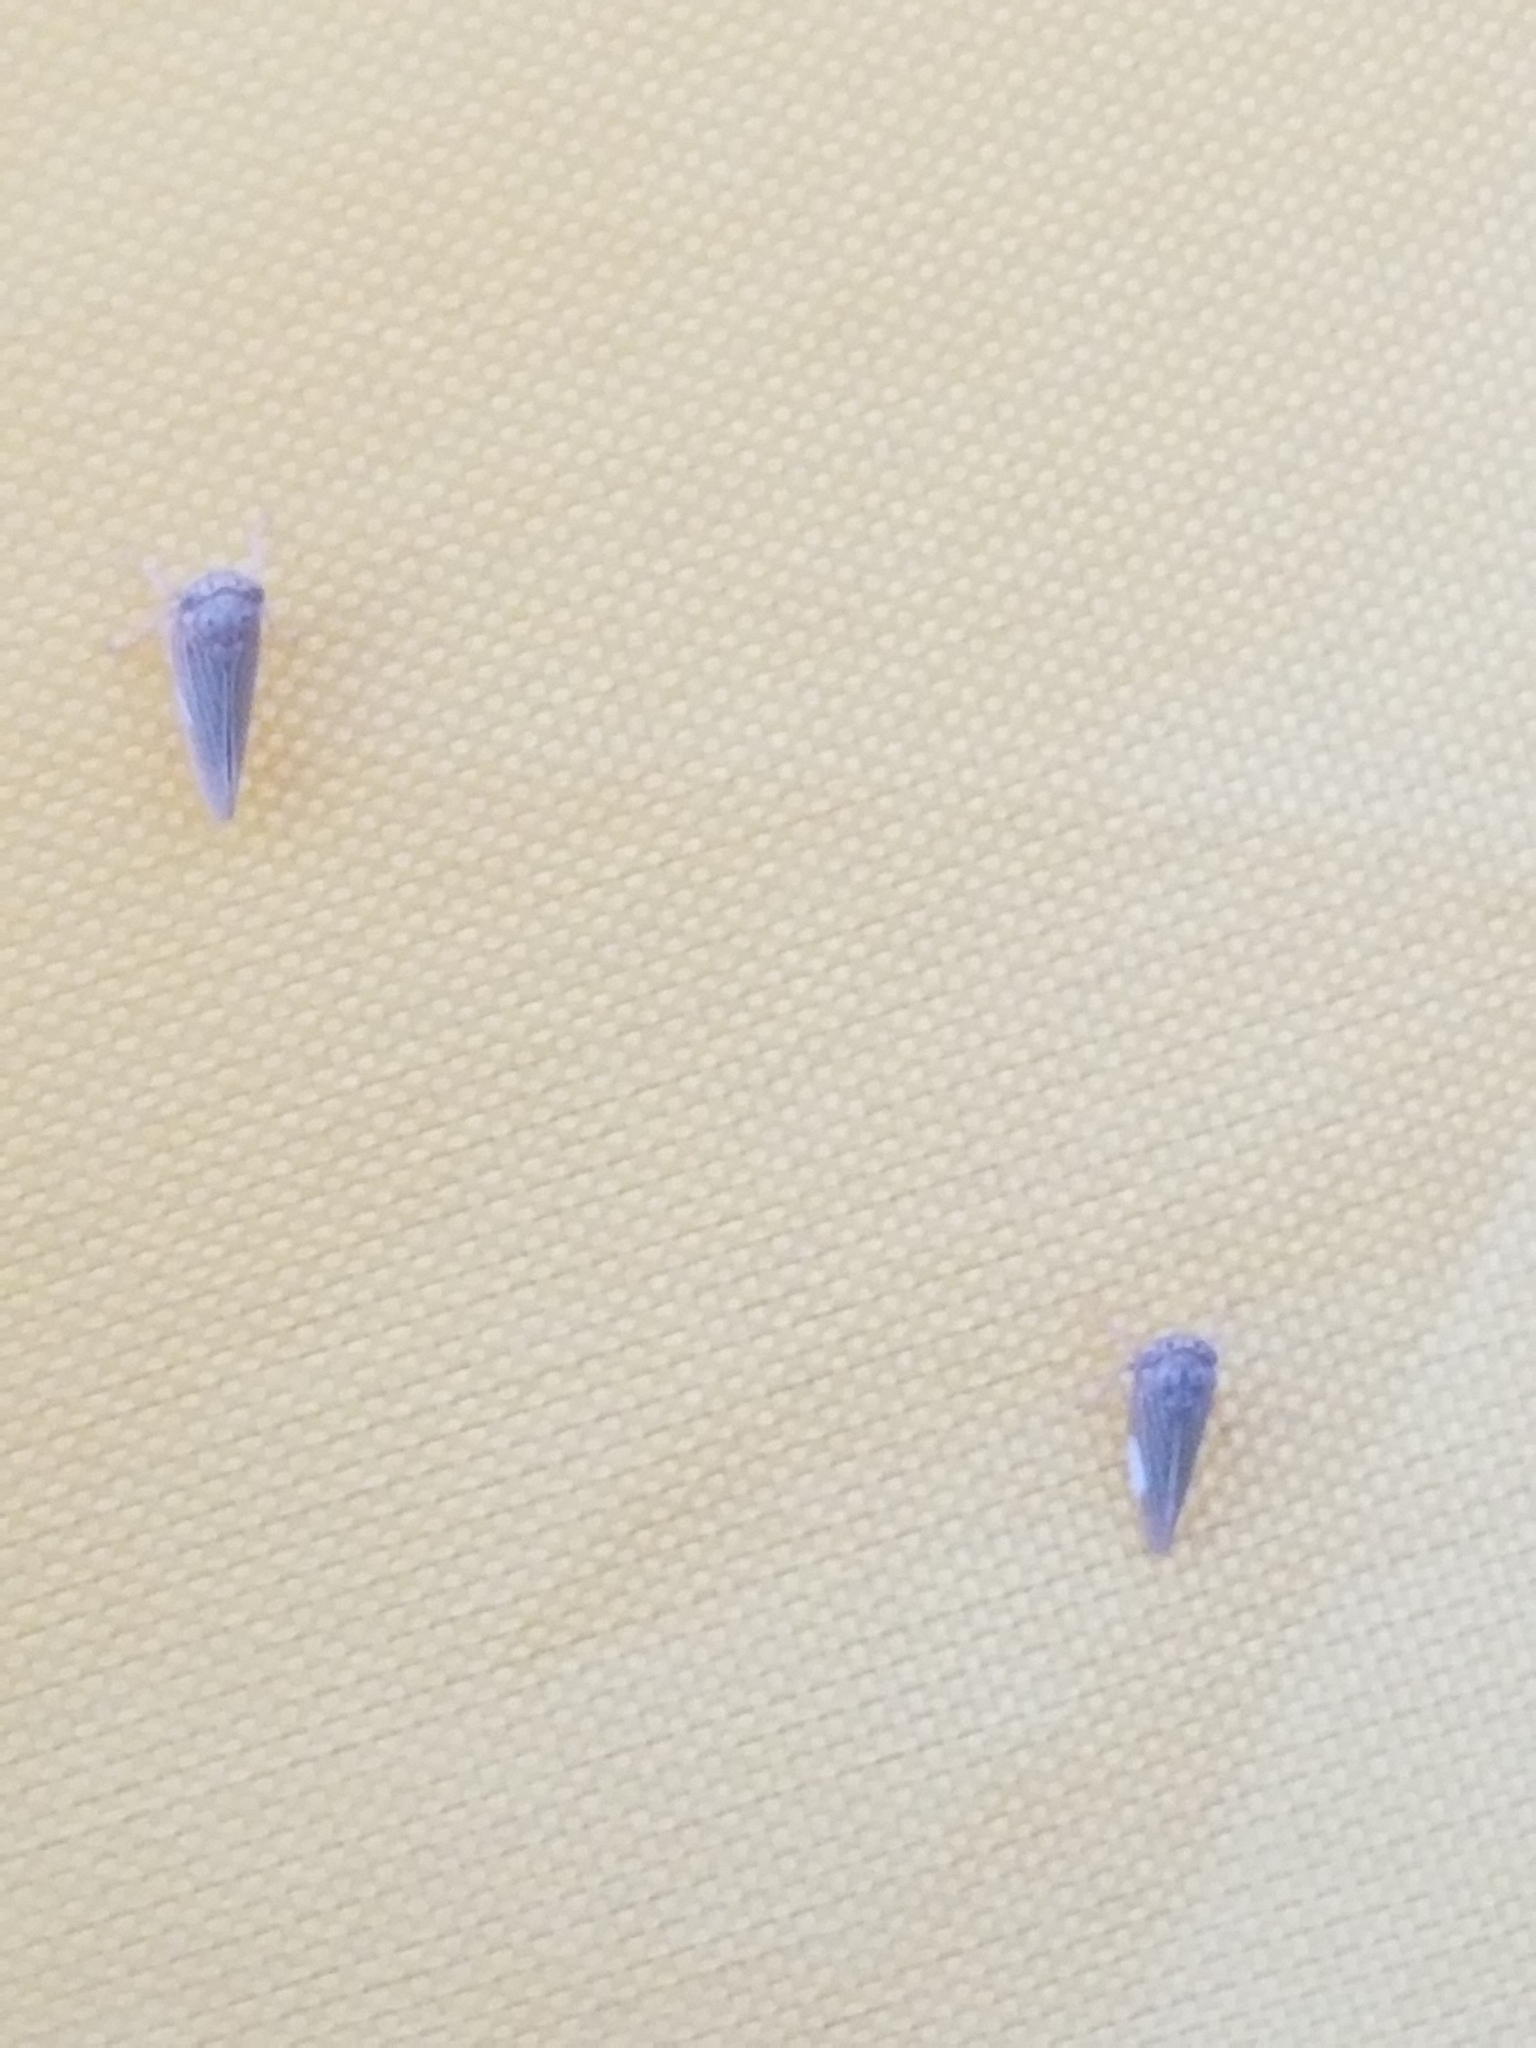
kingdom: Animalia
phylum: Arthropoda
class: Insecta
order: Hemiptera
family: Cicadellidae
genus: Agallia
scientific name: Agallia constricta
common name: The constricted leafhopper
